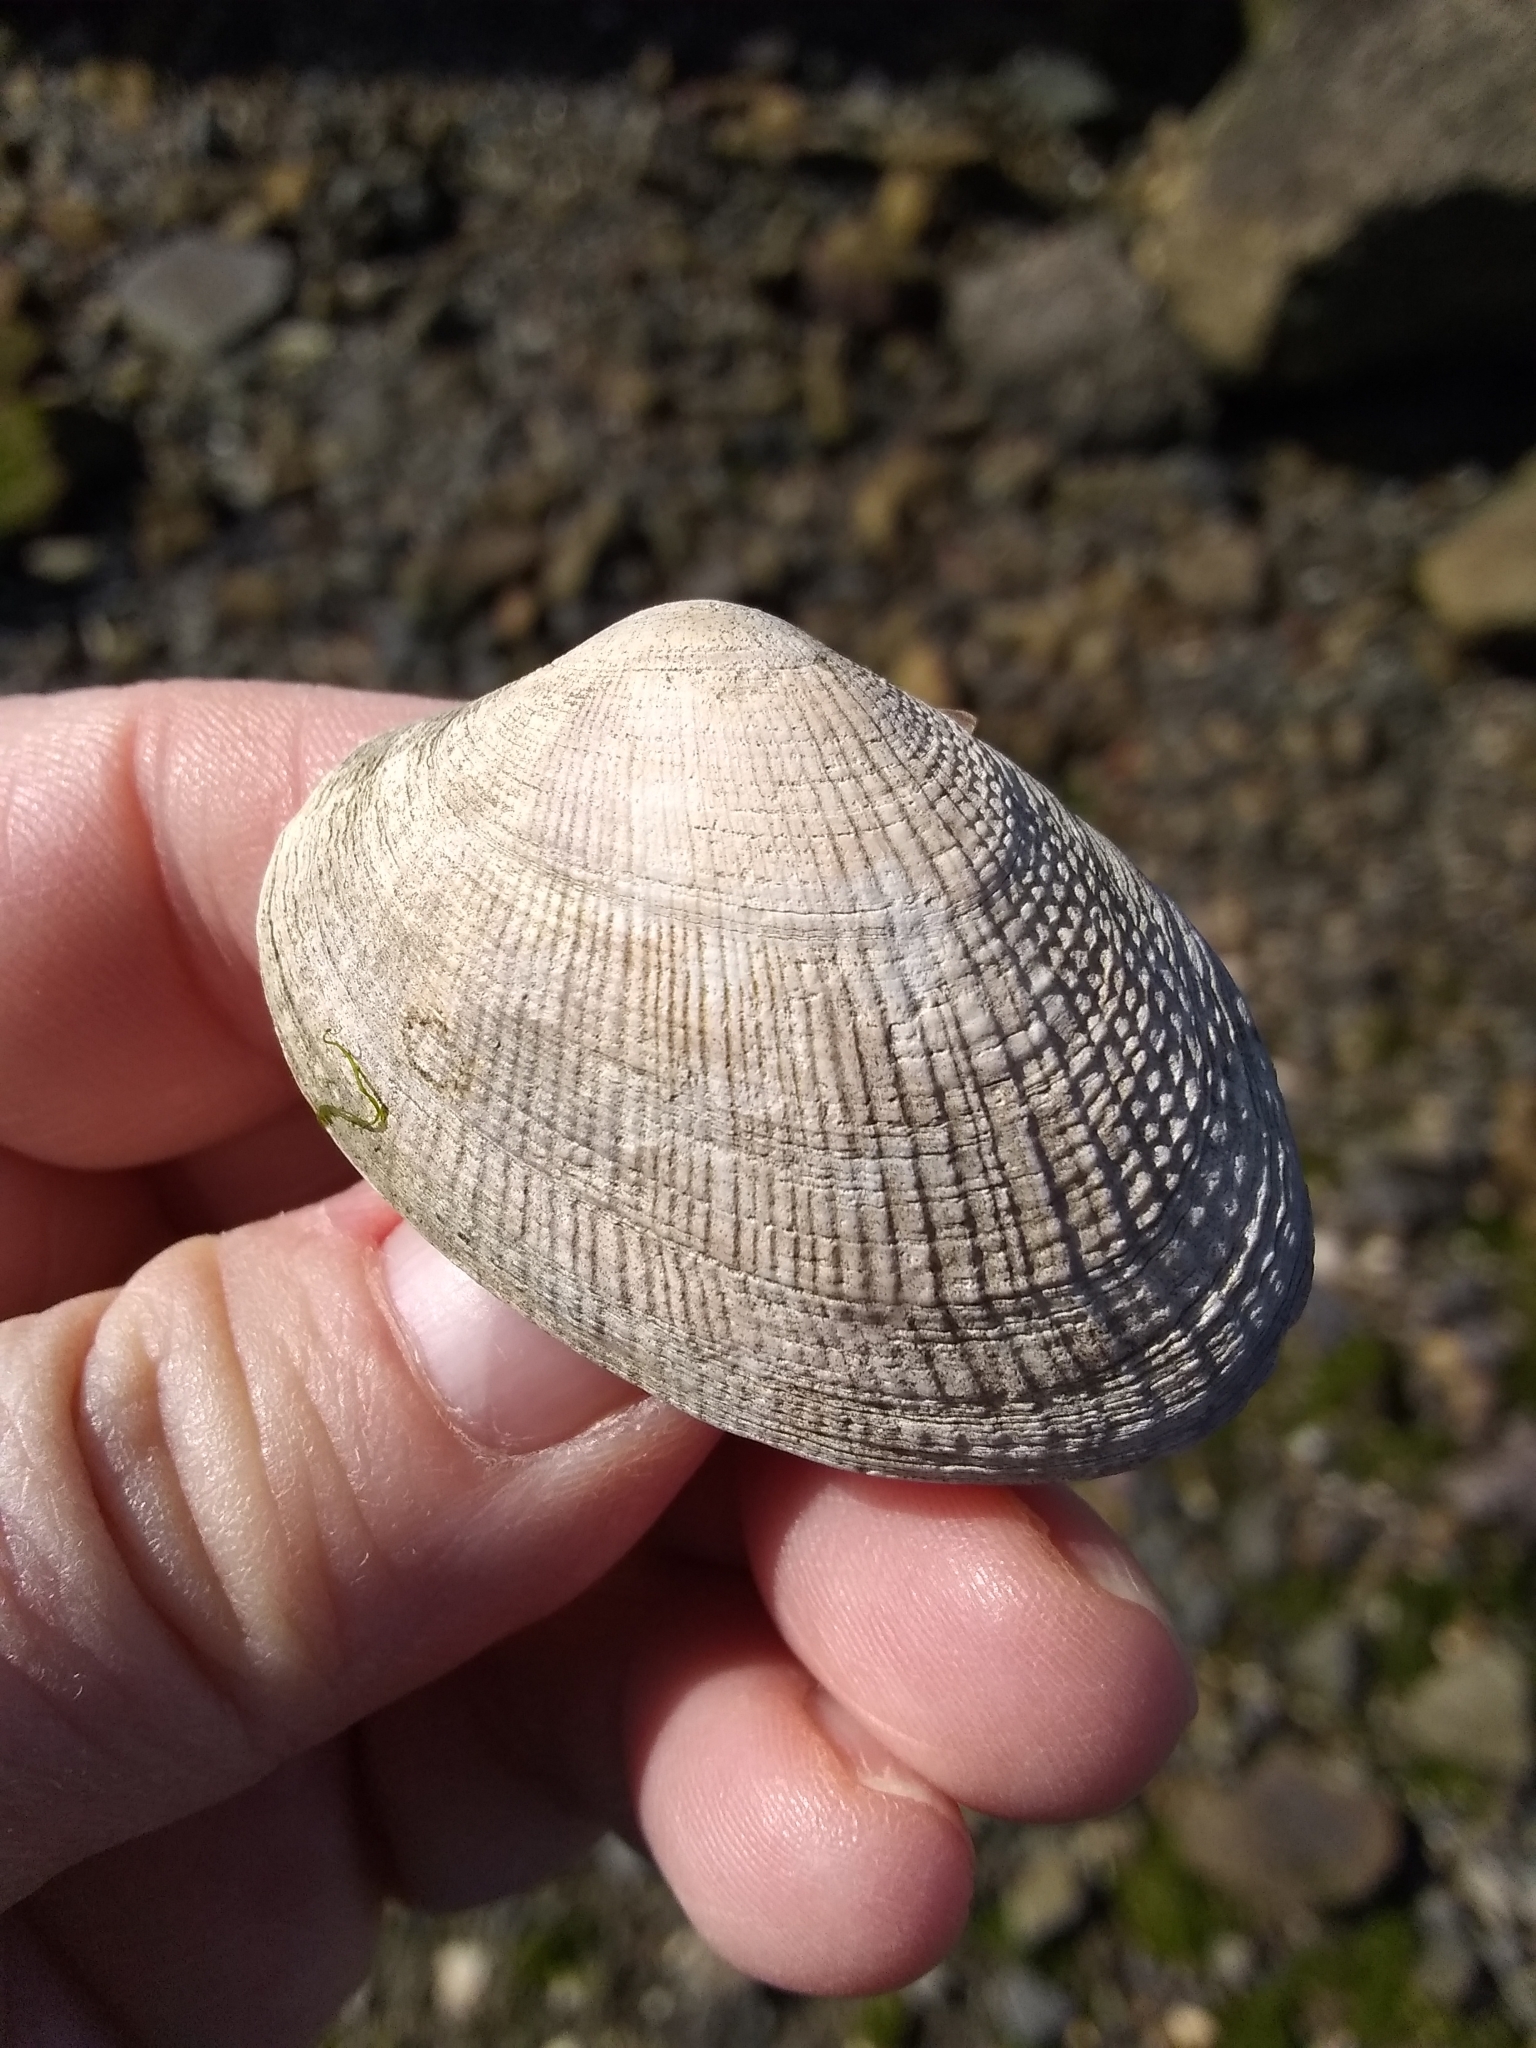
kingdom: Animalia
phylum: Mollusca
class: Bivalvia
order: Venerida
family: Veneridae
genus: Ruditapes
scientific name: Ruditapes philippinarum
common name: Manila clam
